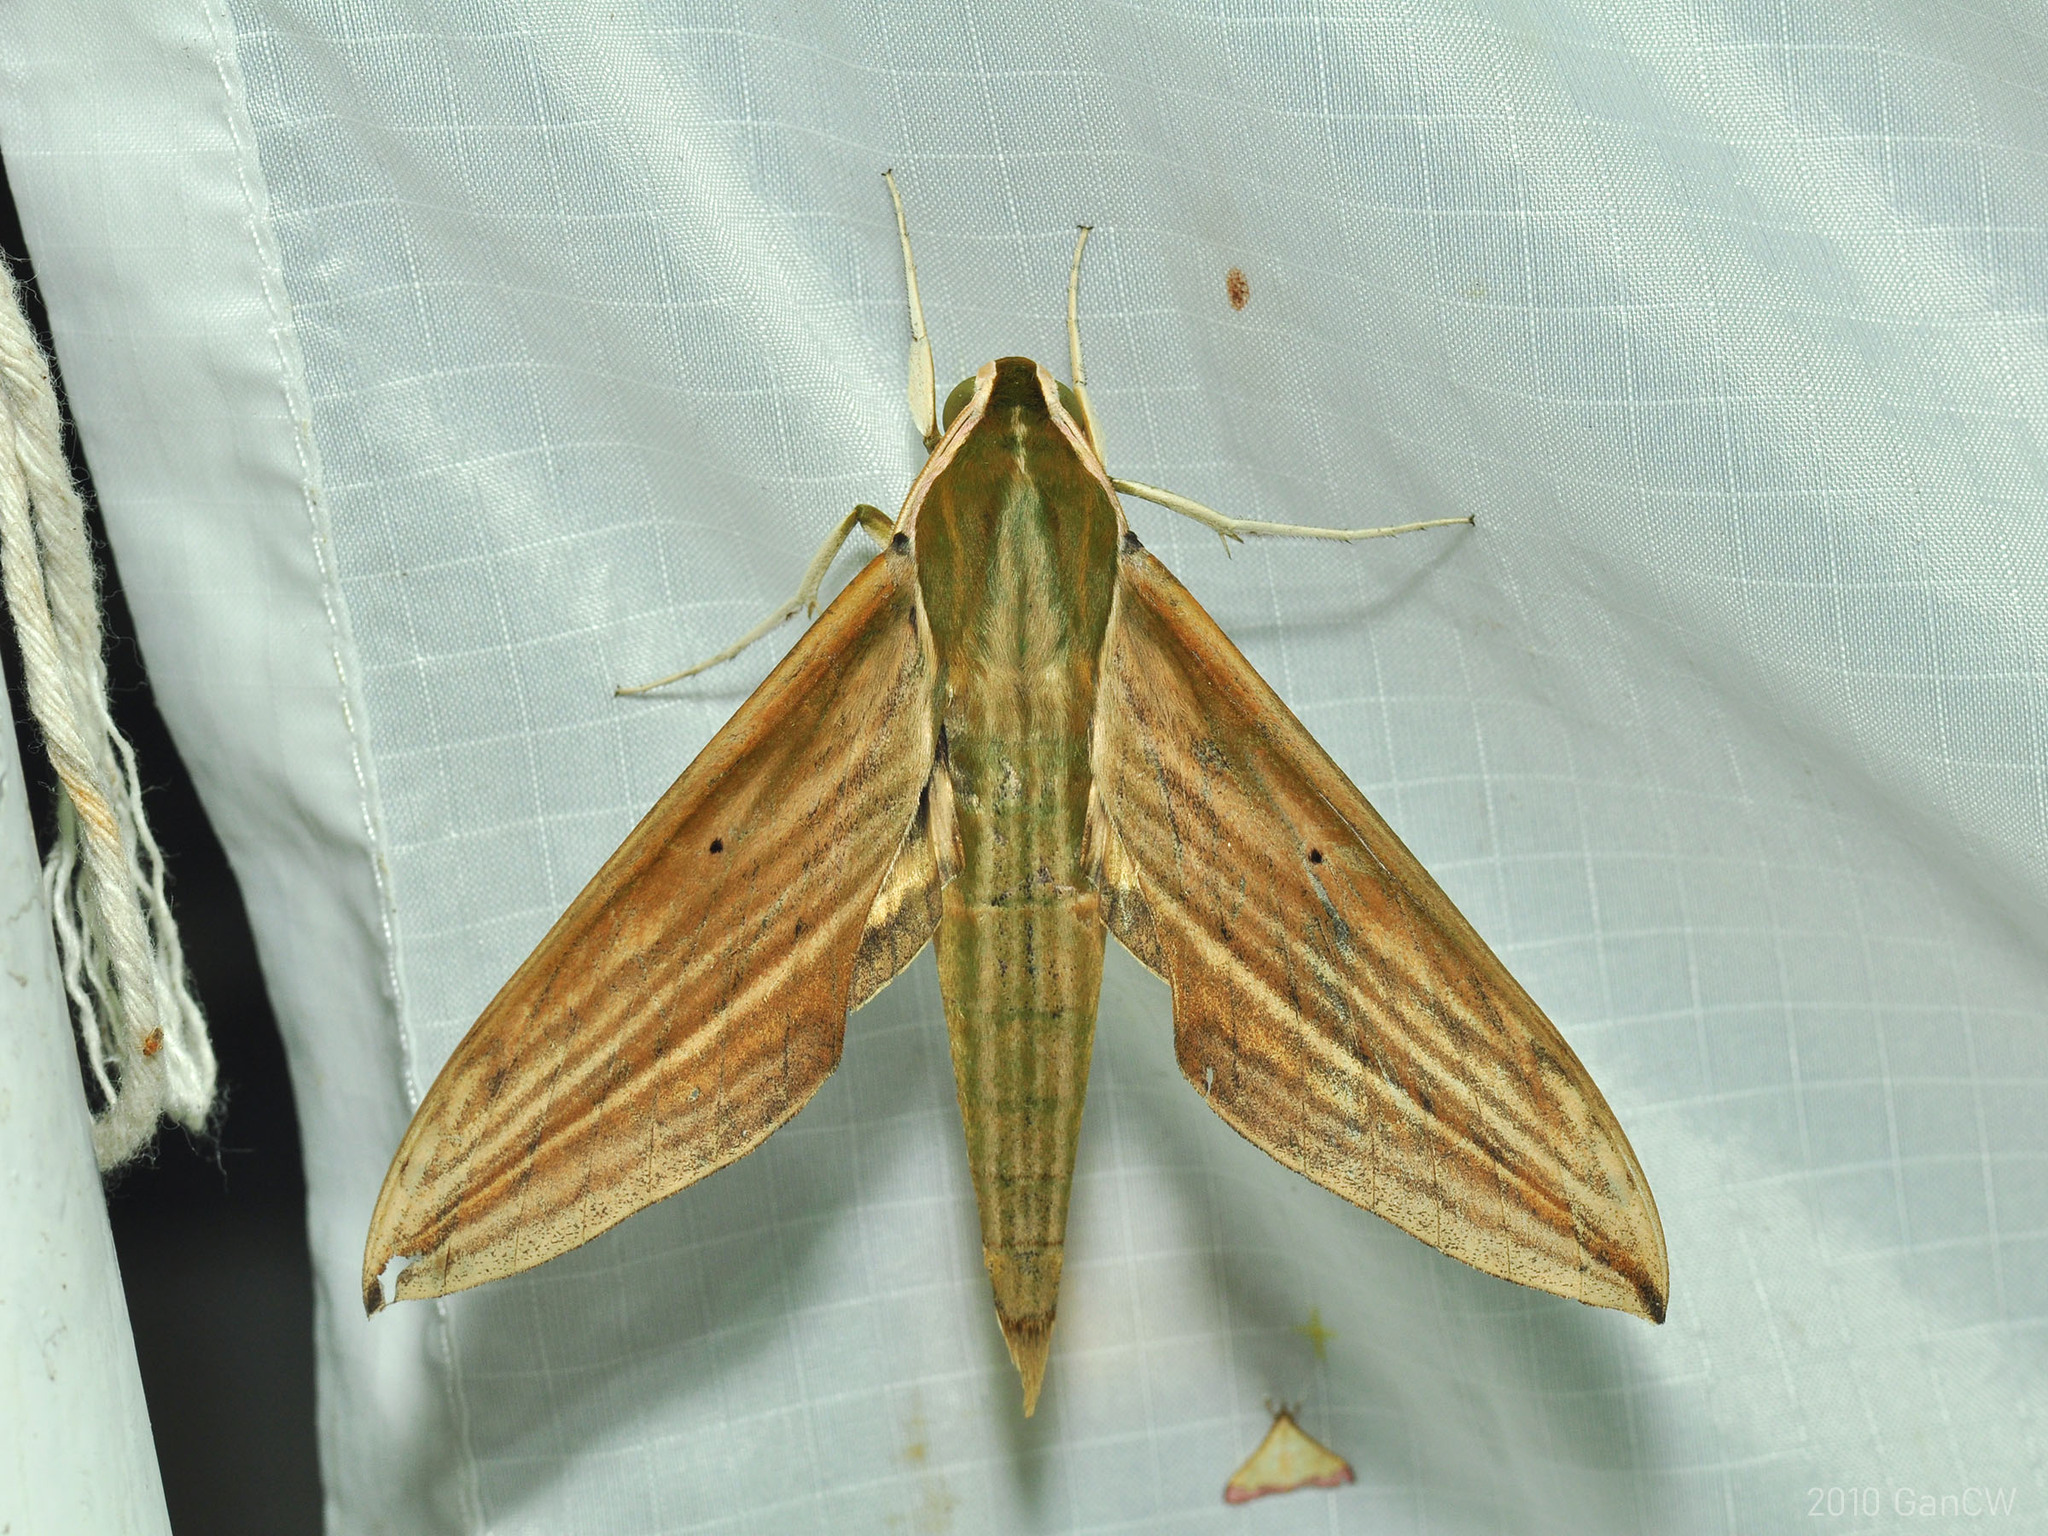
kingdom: Animalia
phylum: Arthropoda
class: Insecta
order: Lepidoptera
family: Sphingidae
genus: Cechetra
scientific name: Cechetra lineosa
